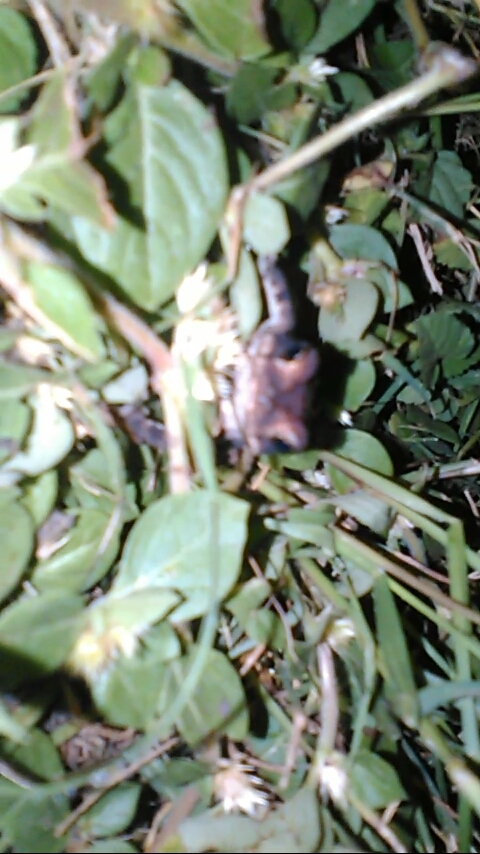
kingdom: Animalia
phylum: Chordata
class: Amphibia
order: Anura
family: Bufonidae
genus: Incilius
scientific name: Incilius nebulifer
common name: Gulf coast toad
